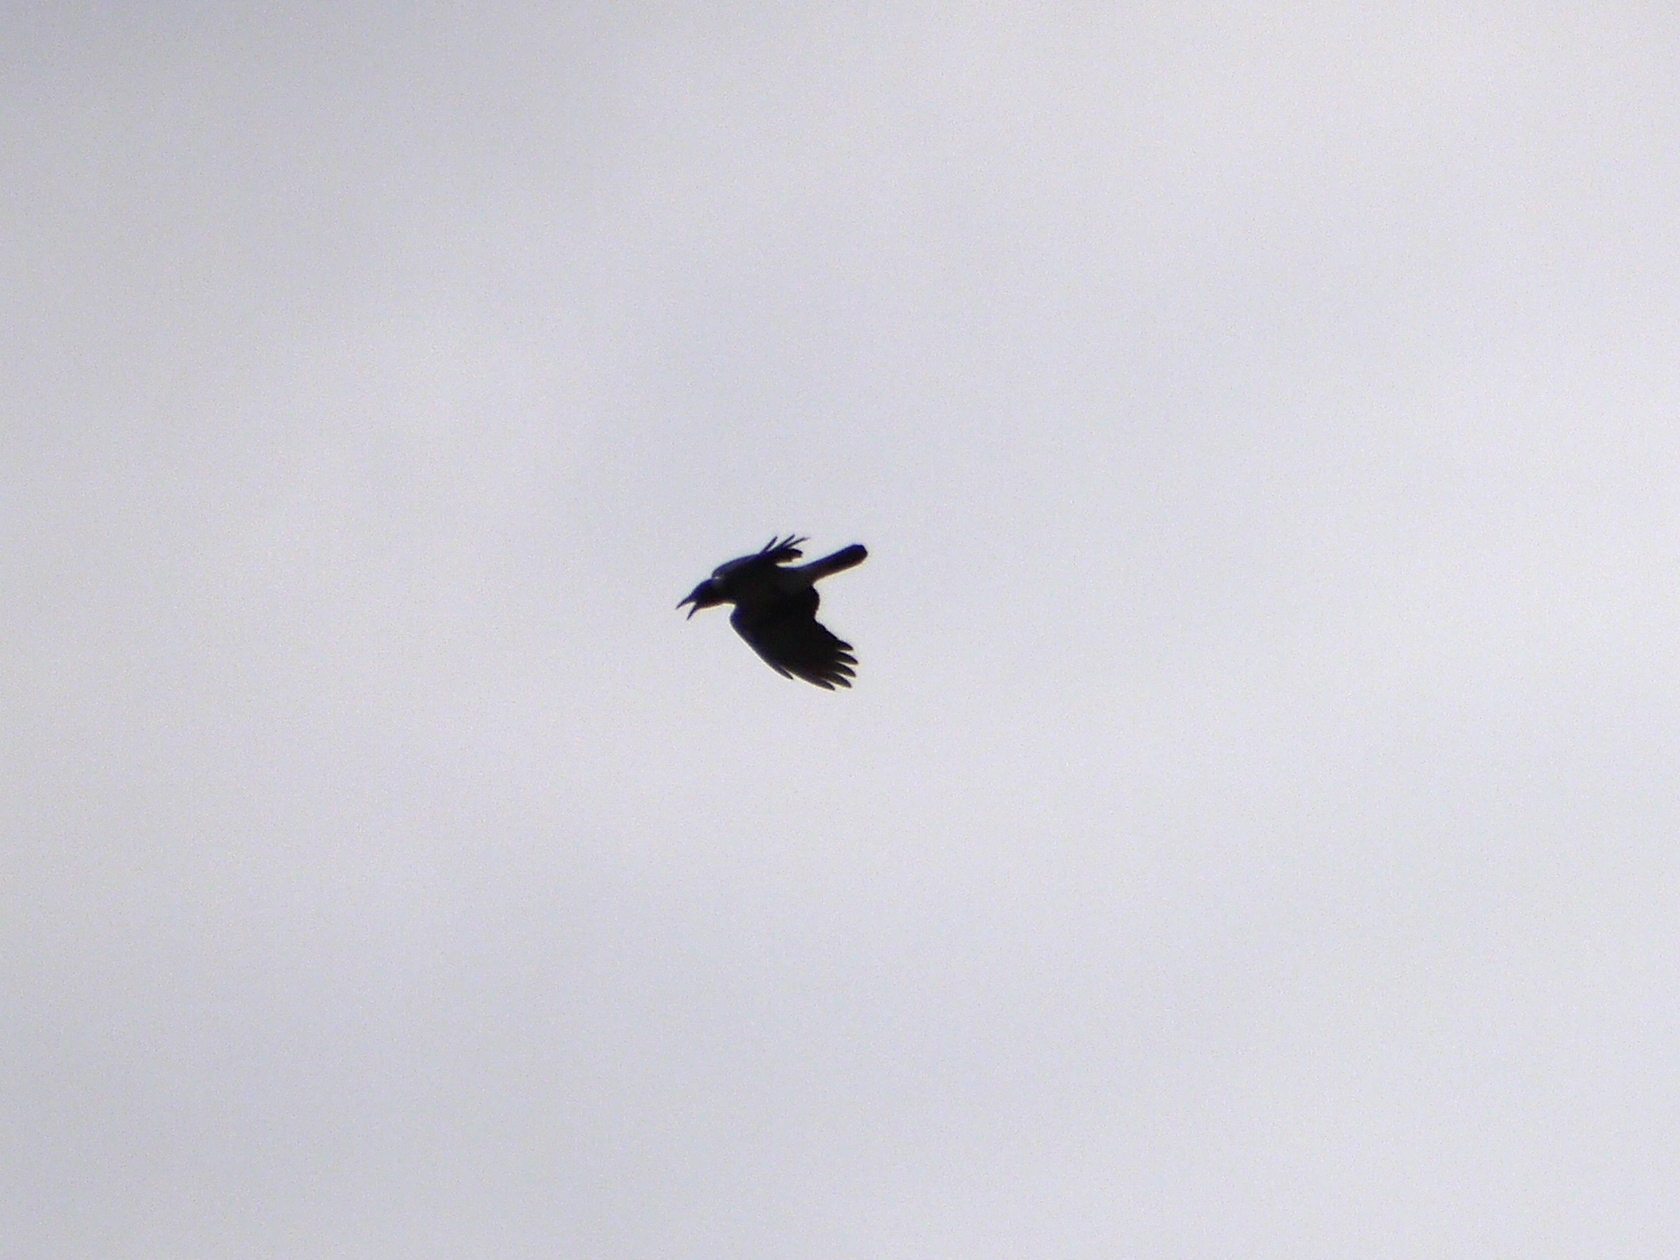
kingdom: Animalia
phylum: Chordata
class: Aves
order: Passeriformes
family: Corvidae
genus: Corvus
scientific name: Corvus cornix
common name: Hooded crow
